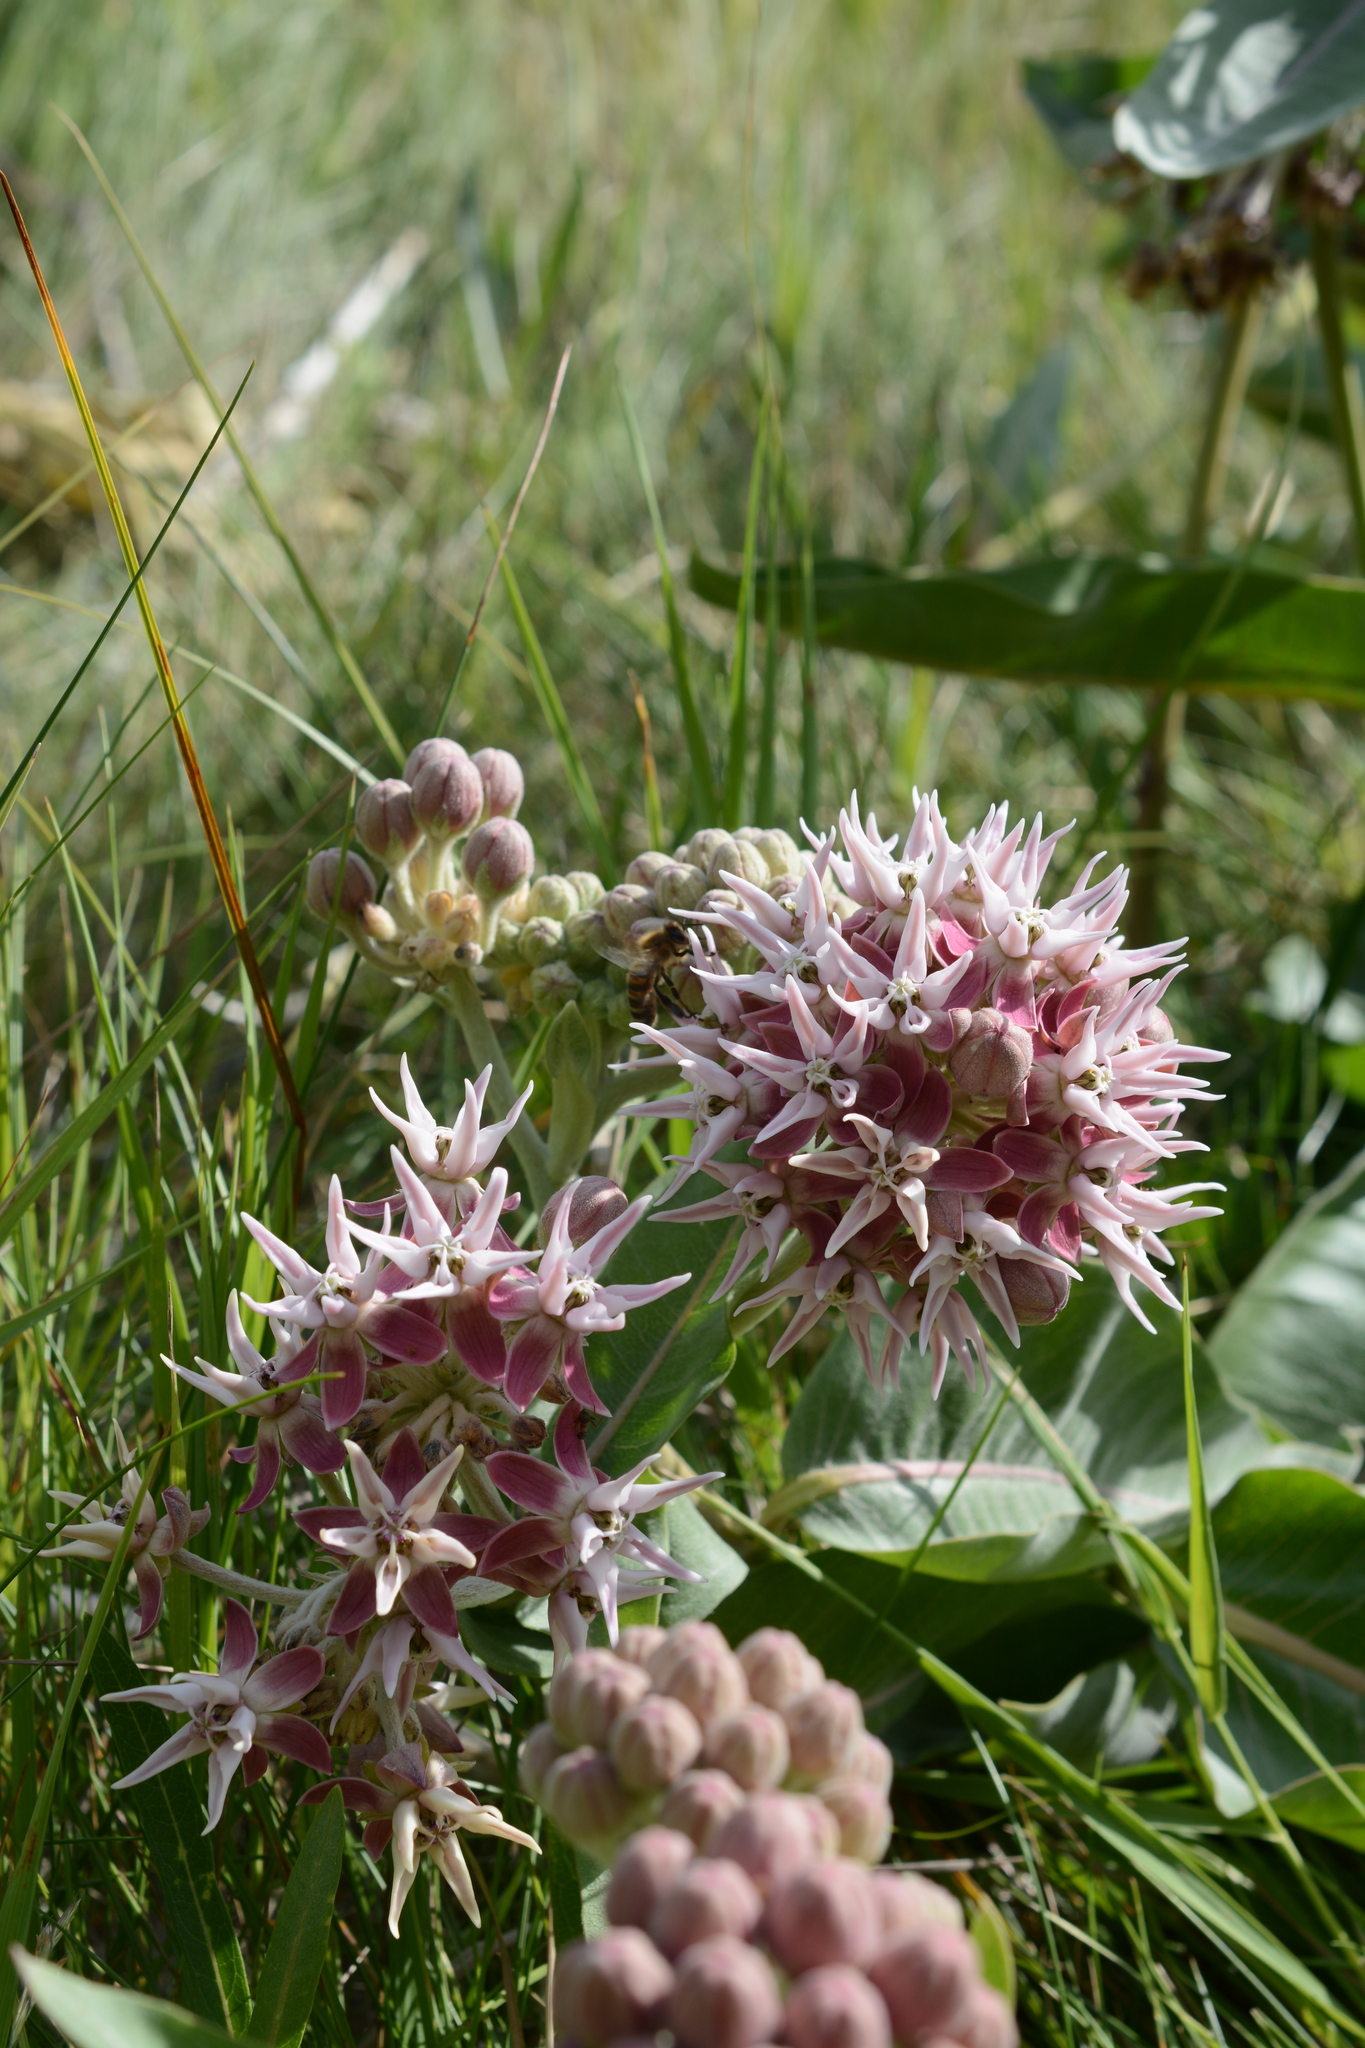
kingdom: Plantae
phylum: Tracheophyta
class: Magnoliopsida
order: Gentianales
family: Apocynaceae
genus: Asclepias
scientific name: Asclepias speciosa
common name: Showy milkweed
